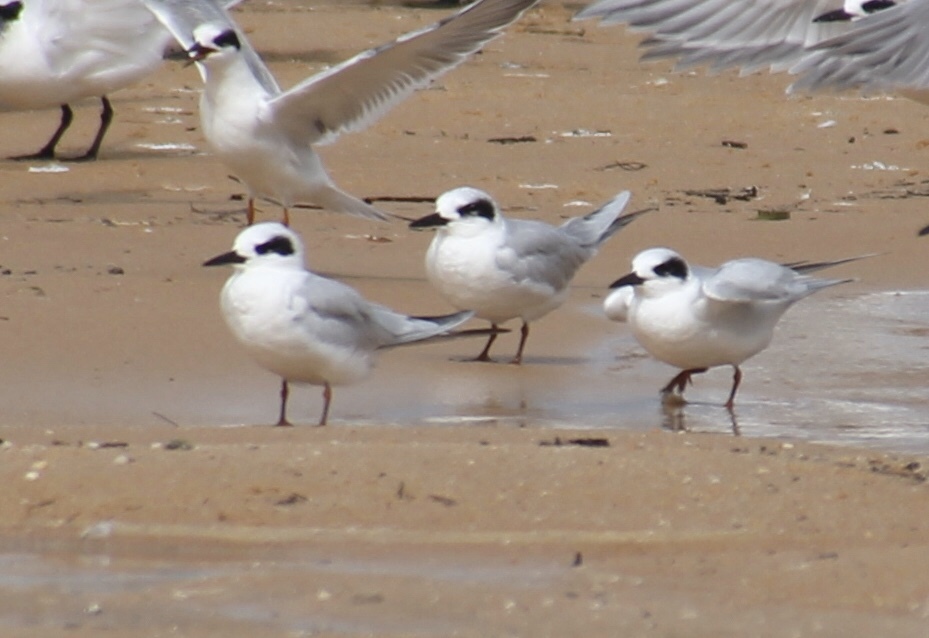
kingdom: Animalia
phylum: Chordata
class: Aves
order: Charadriiformes
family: Laridae
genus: Sterna
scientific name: Sterna forsteri
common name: Forster's tern
